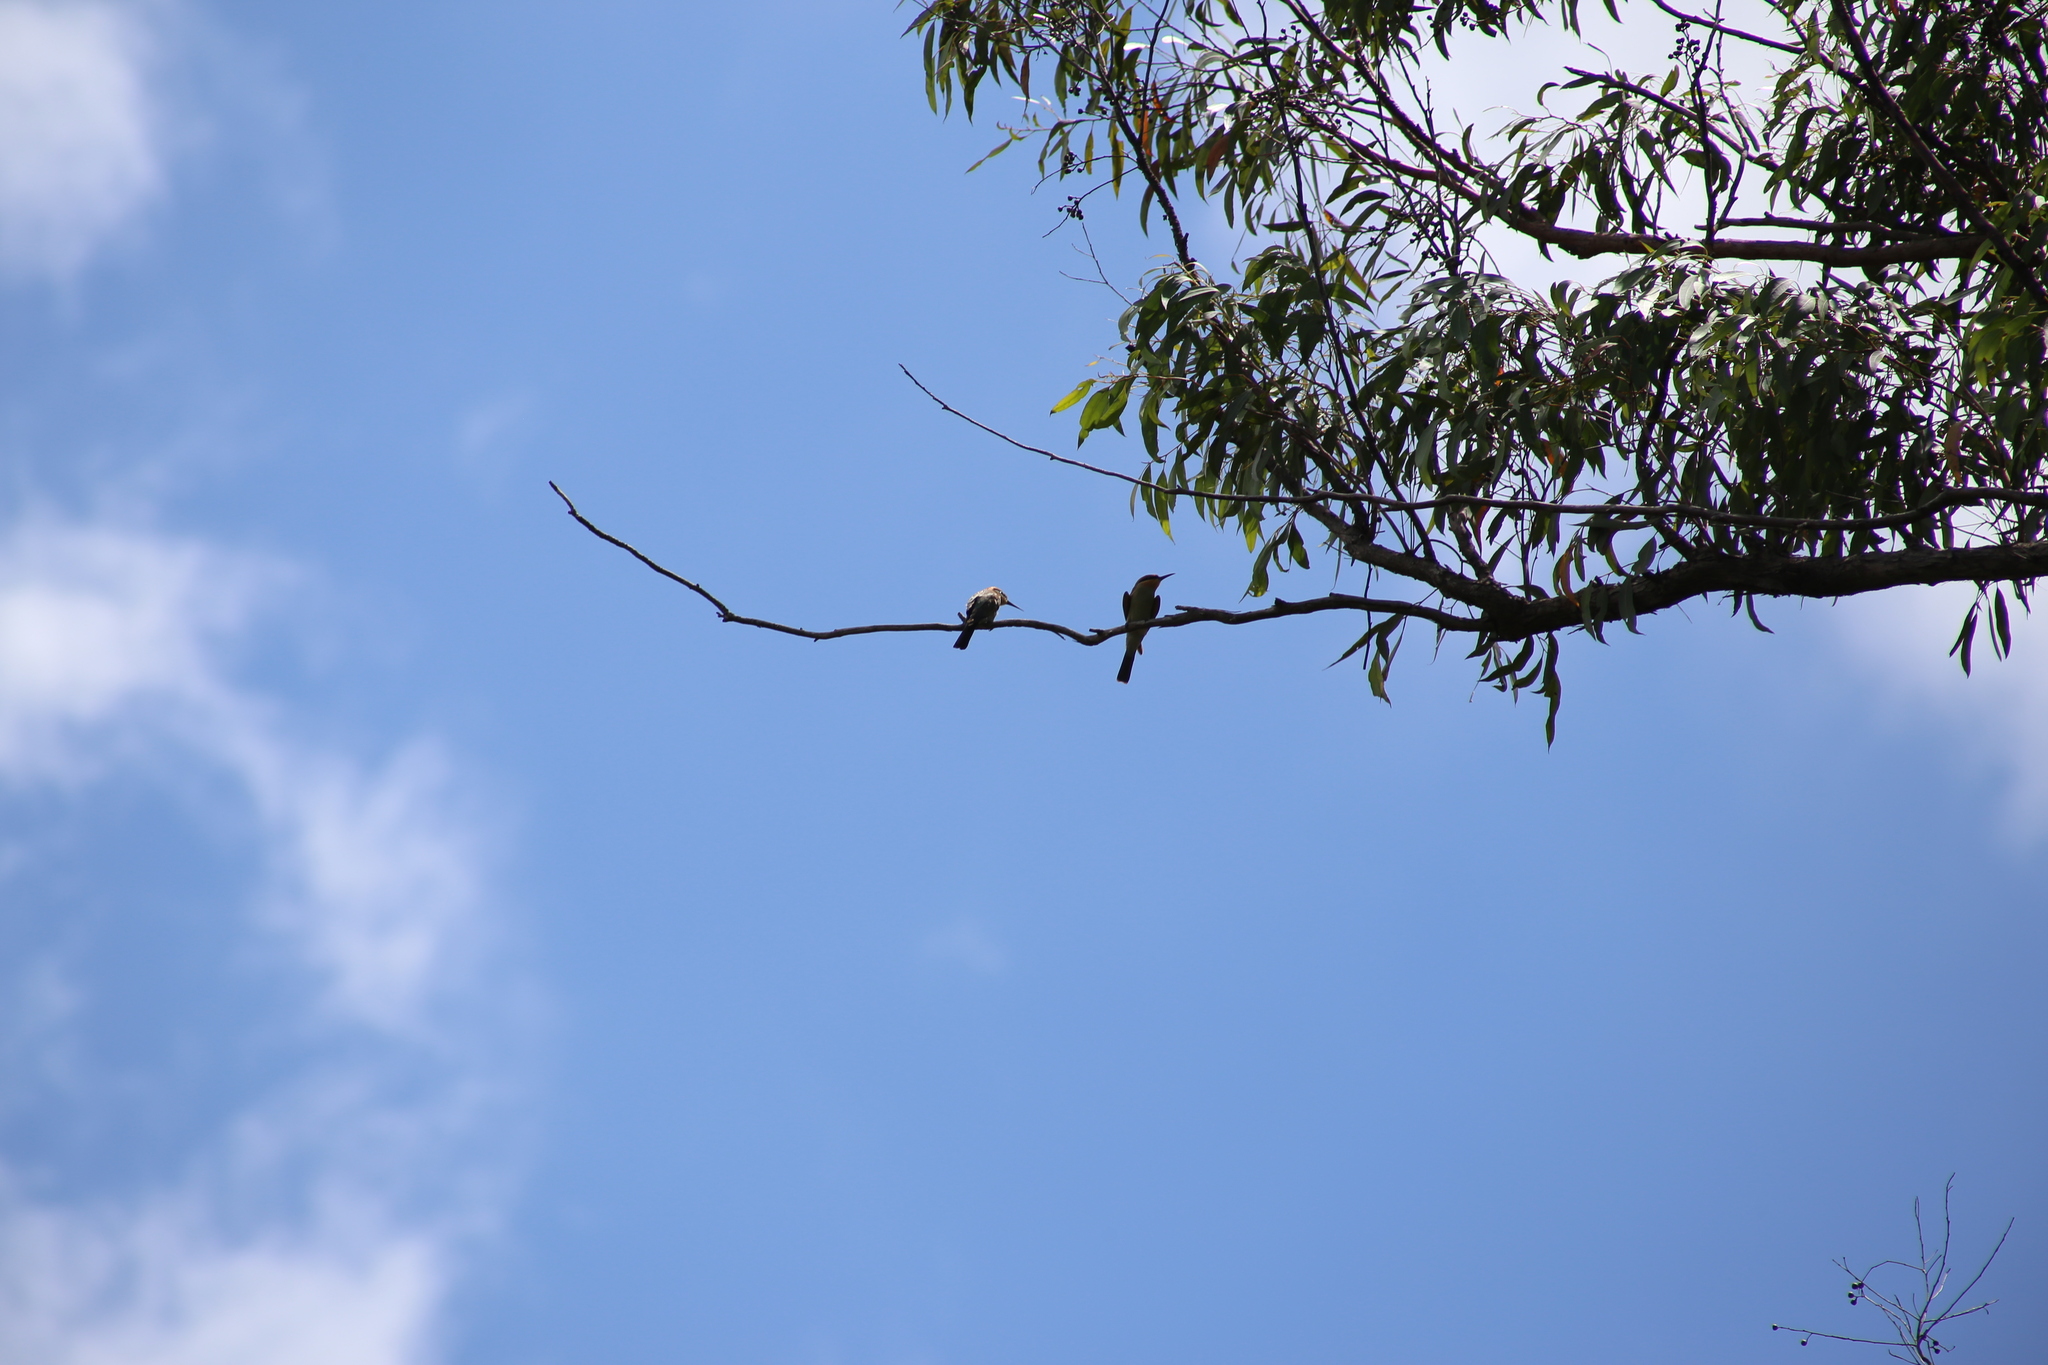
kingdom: Animalia
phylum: Chordata
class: Aves
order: Coraciiformes
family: Meropidae
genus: Merops
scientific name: Merops ornatus
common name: Rainbow bee-eater
